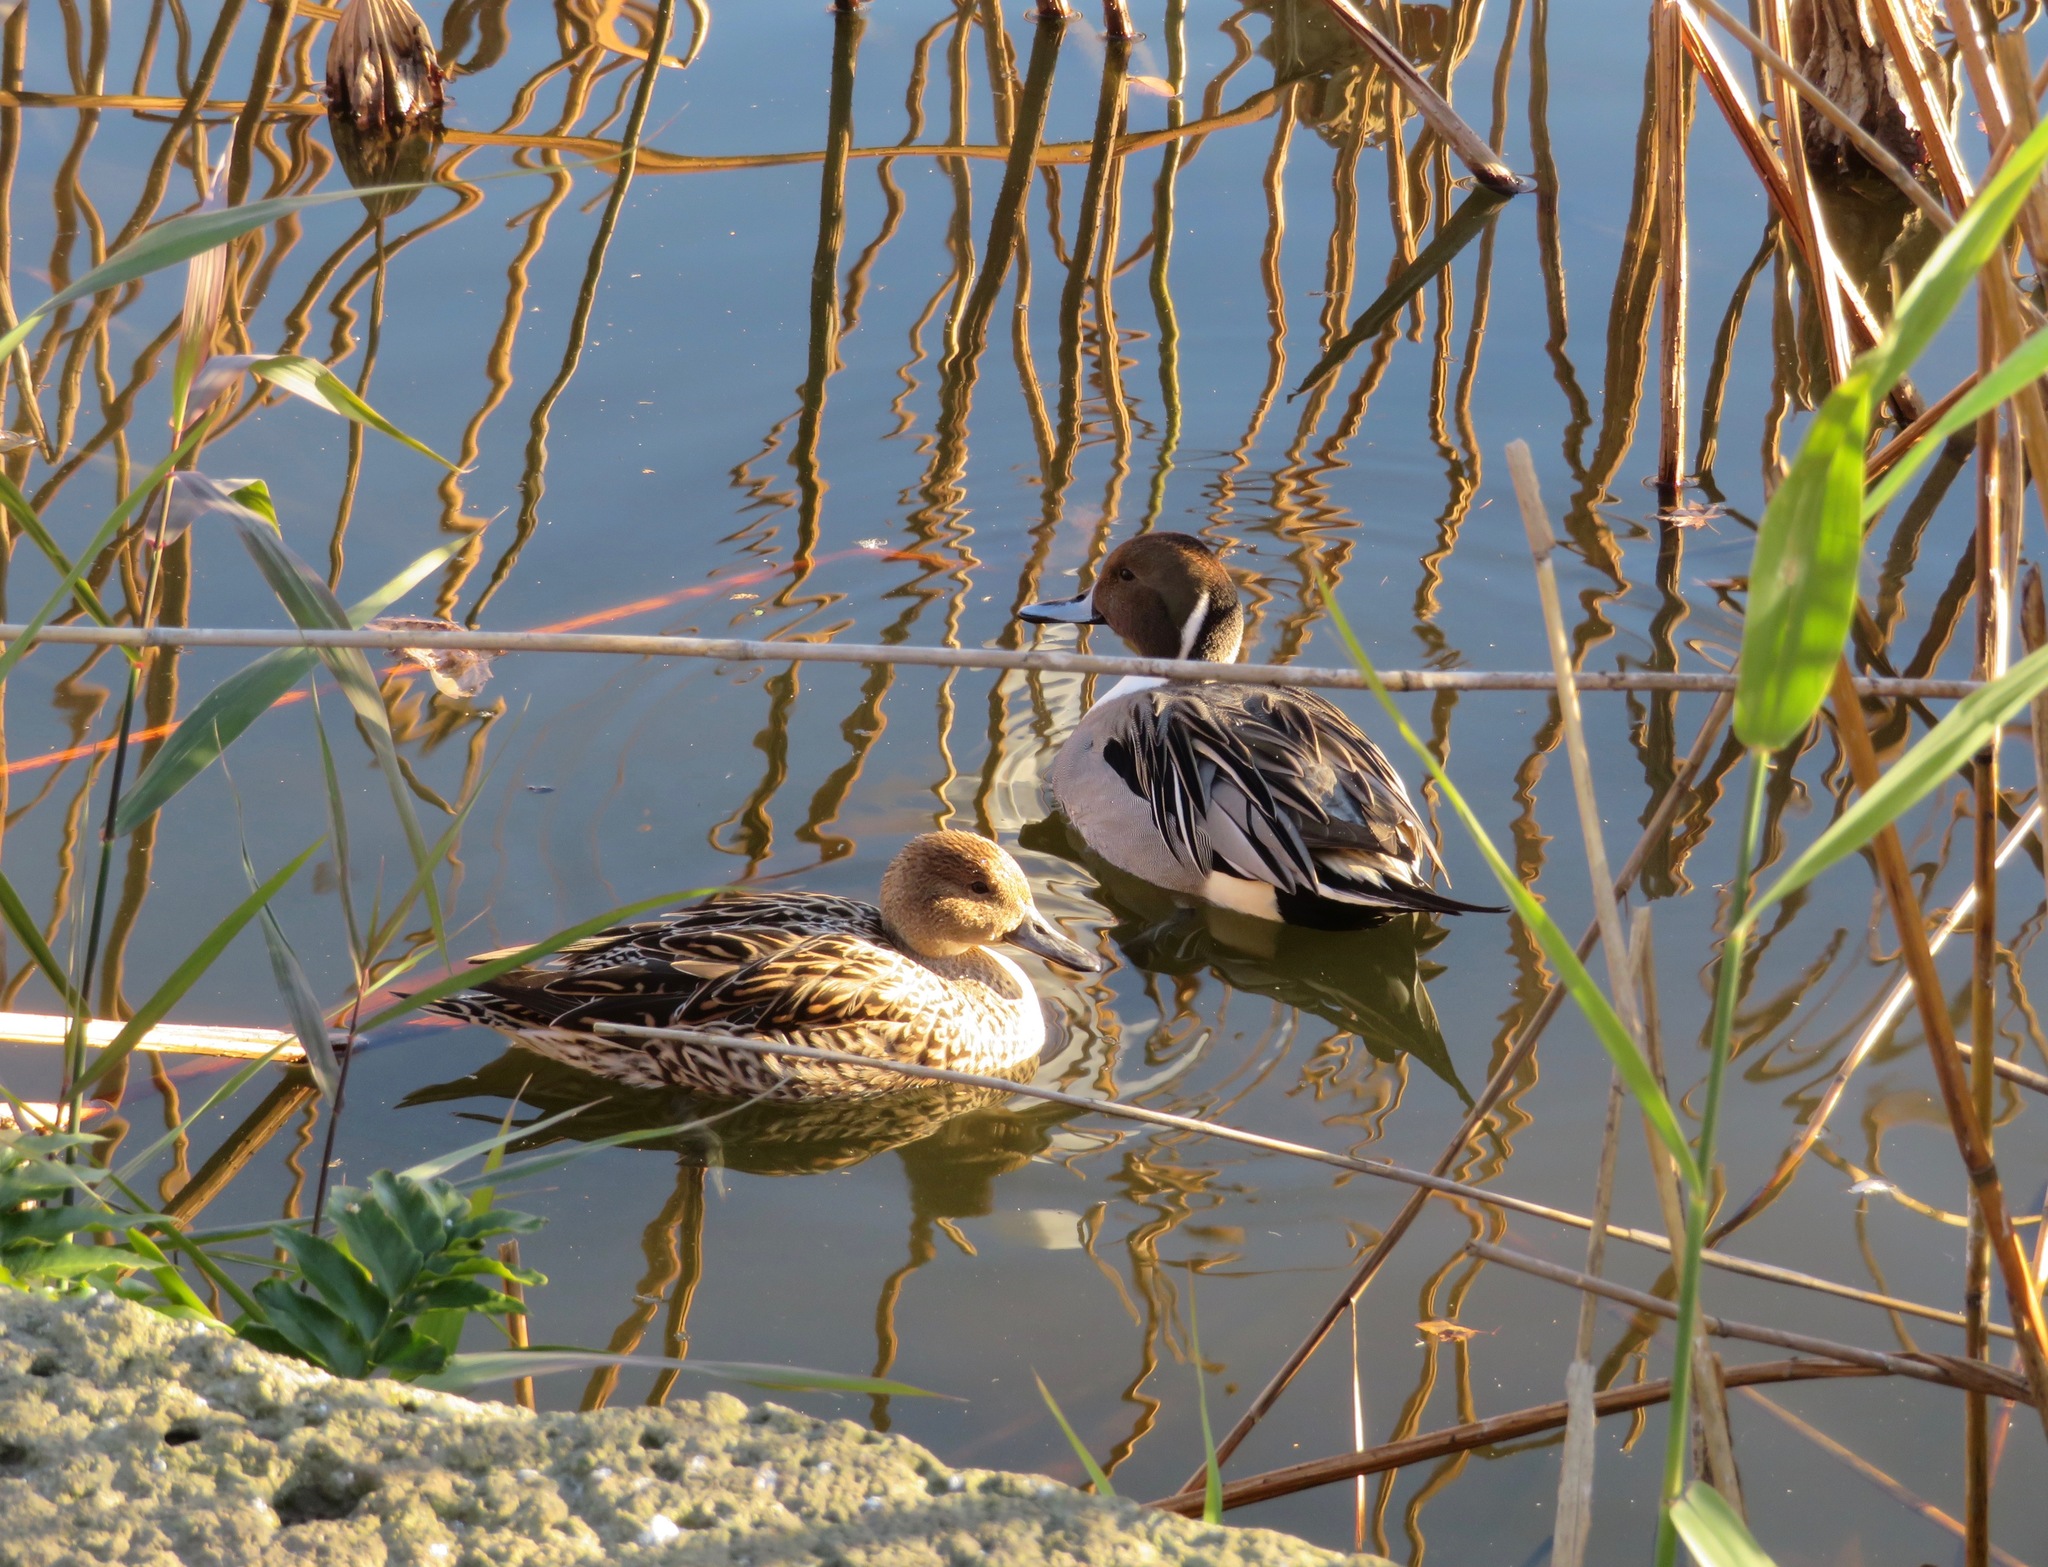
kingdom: Animalia
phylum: Chordata
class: Aves
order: Anseriformes
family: Anatidae
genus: Anas
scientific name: Anas acuta
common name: Northern pintail
